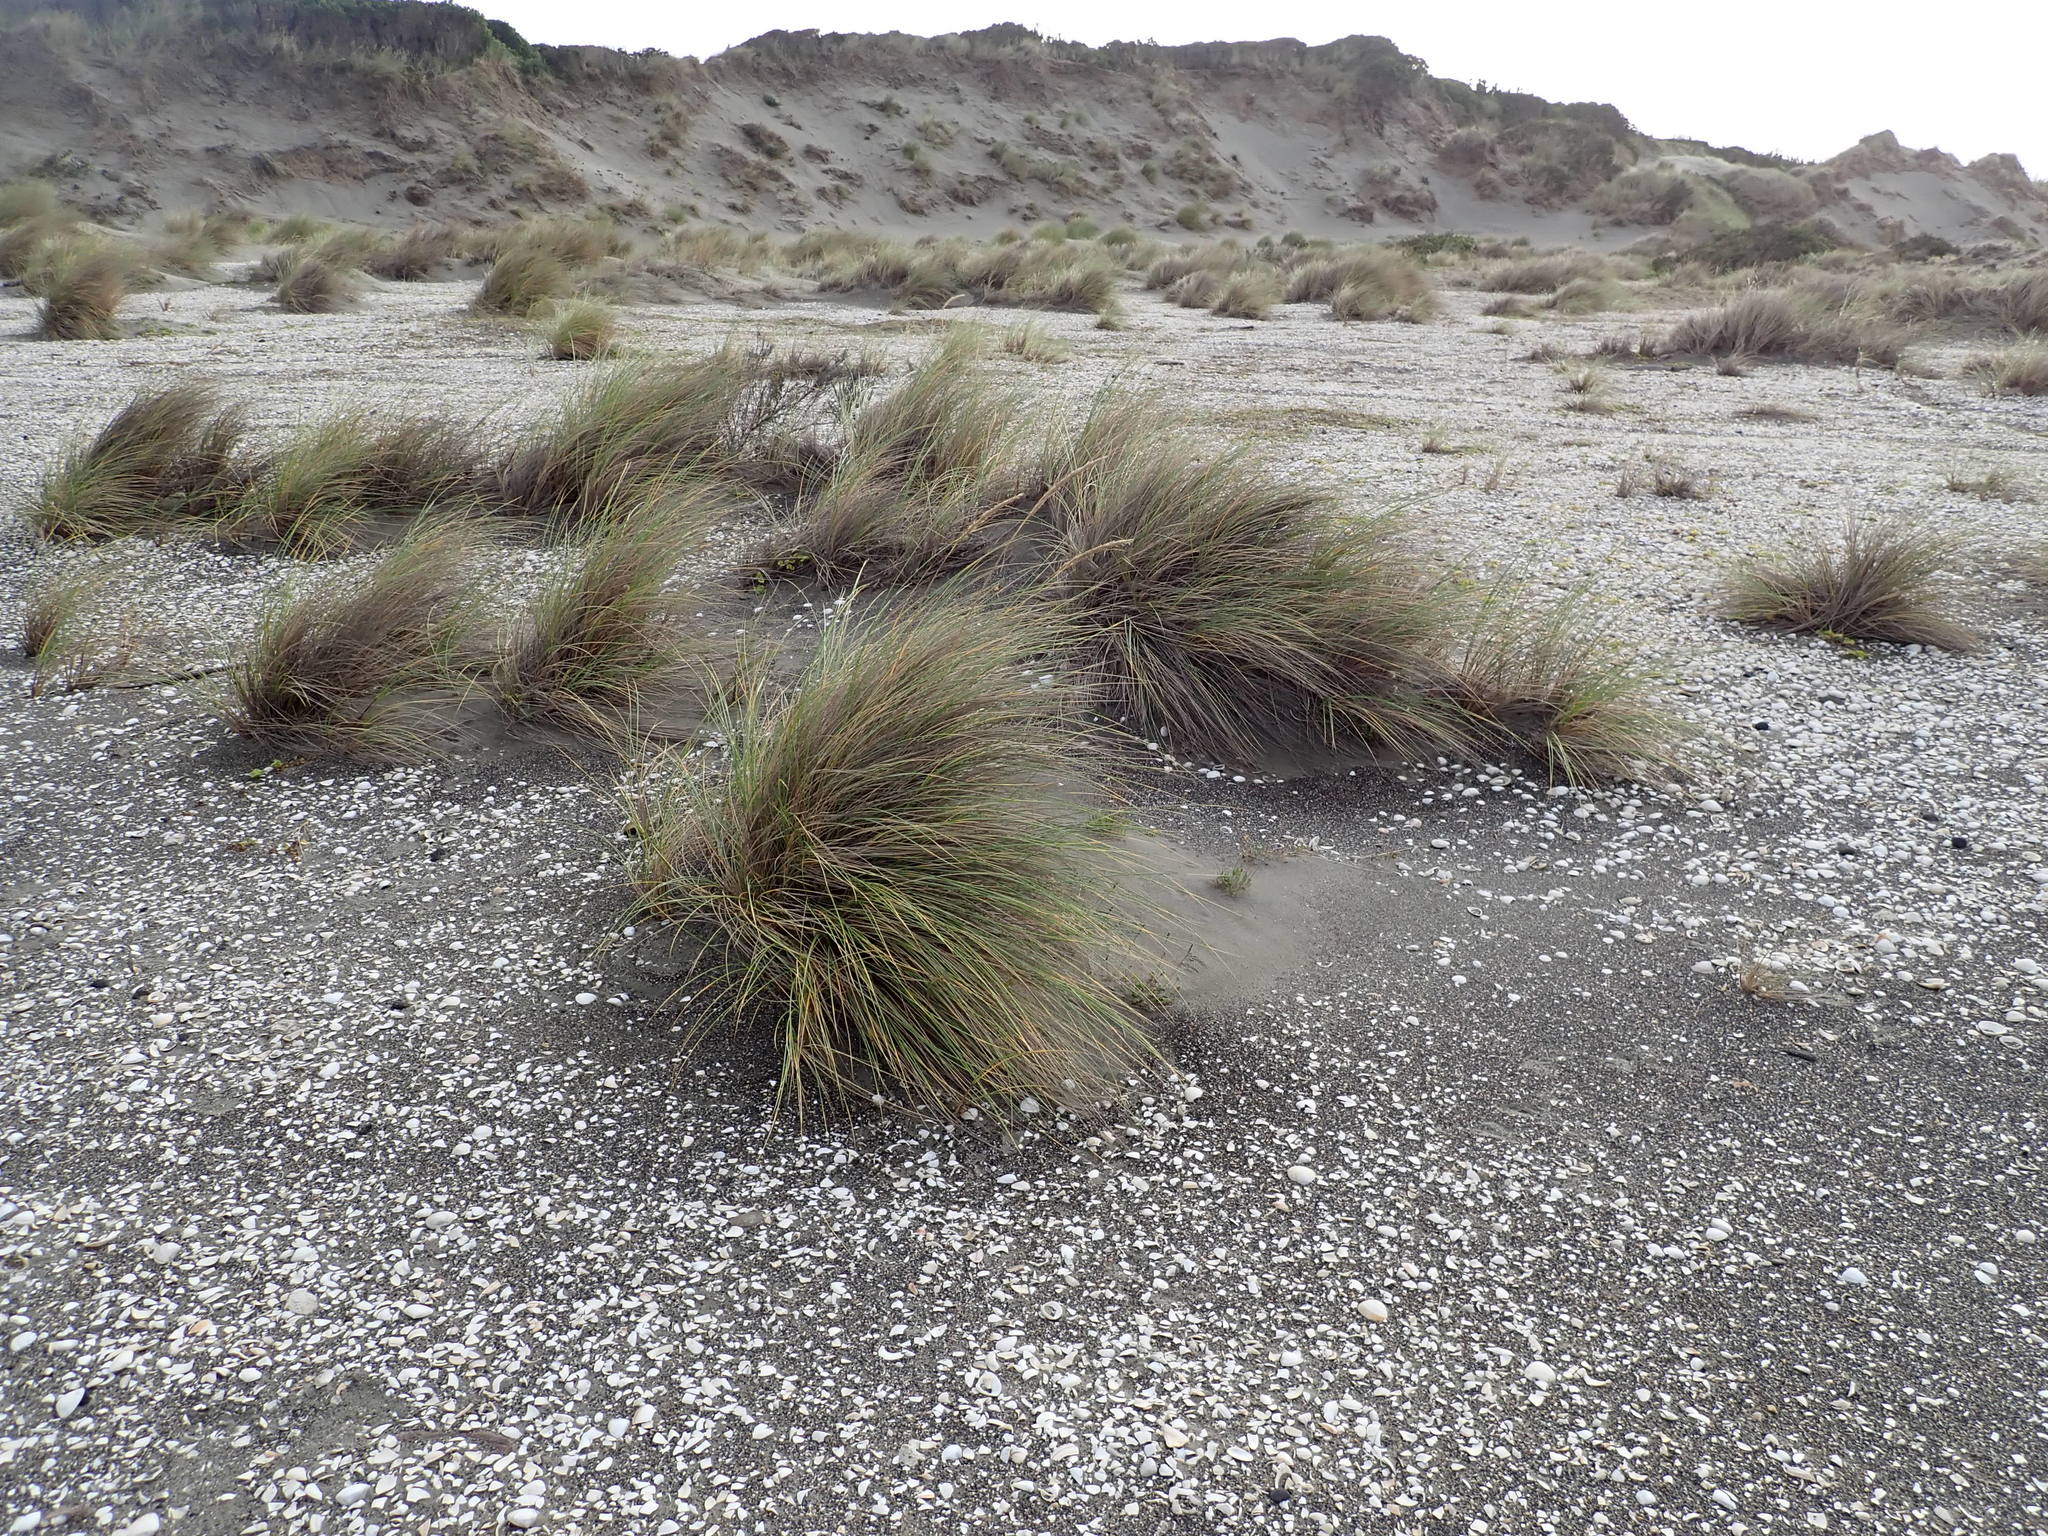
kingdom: Plantae
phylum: Tracheophyta
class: Liliopsida
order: Poales
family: Poaceae
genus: Calamagrostis
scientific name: Calamagrostis arenaria
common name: European beachgrass
